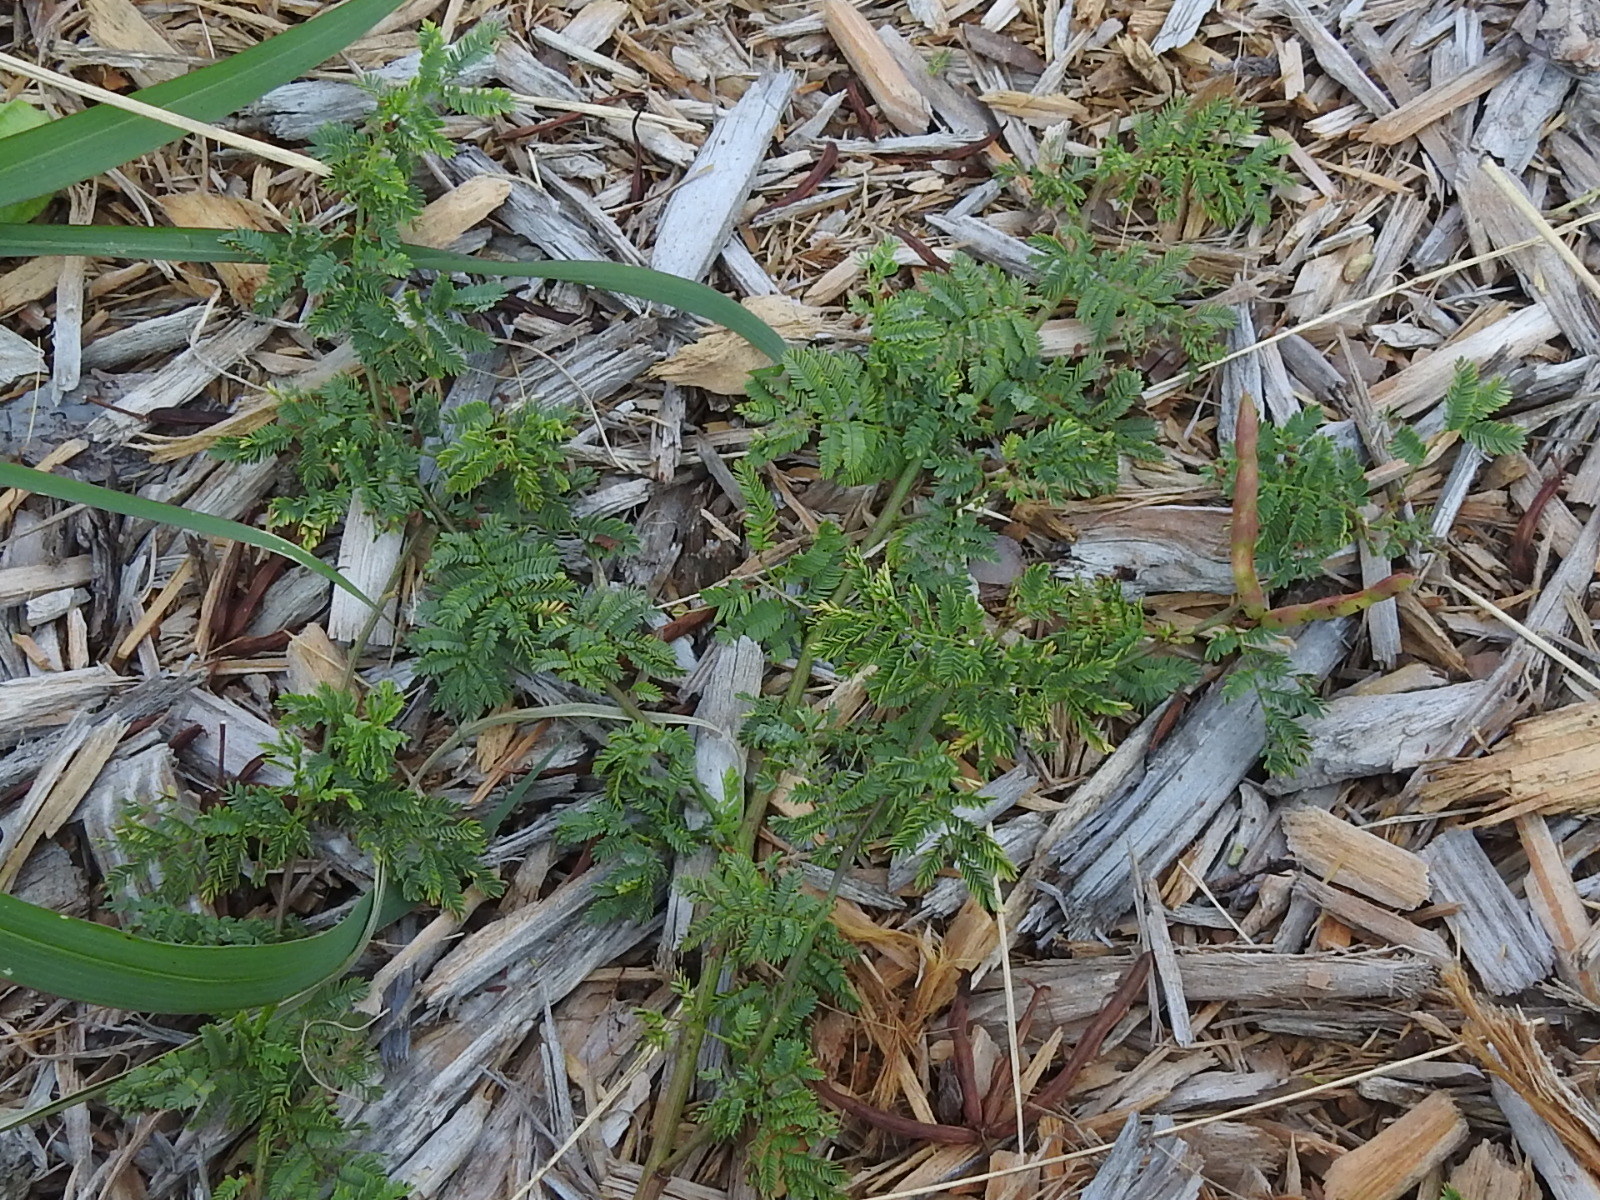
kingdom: Plantae
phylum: Tracheophyta
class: Magnoliopsida
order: Fabales
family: Fabaceae
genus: Desmanthus
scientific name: Desmanthus leptolobus
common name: Prairie-mimosa
